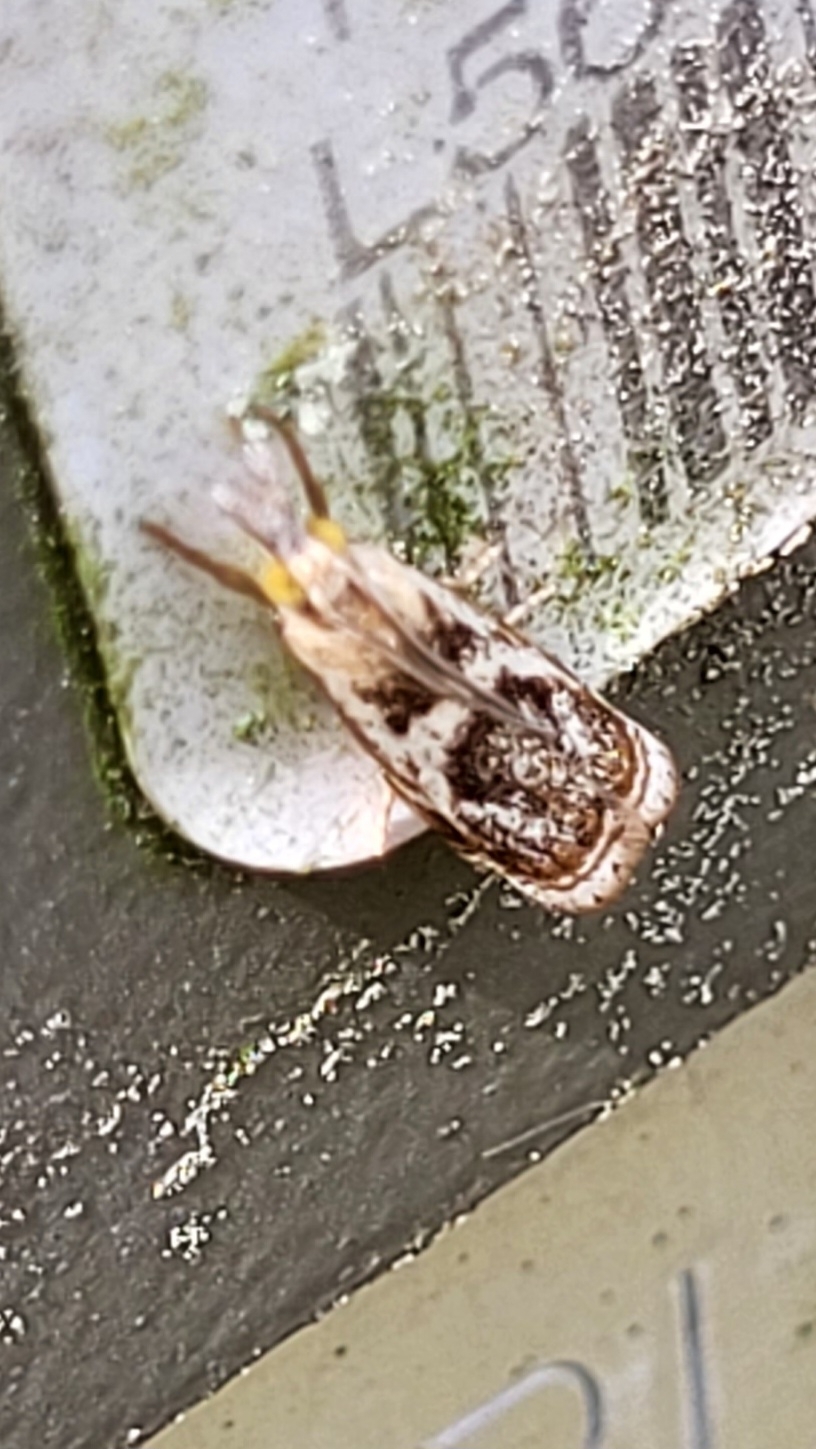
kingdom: Animalia
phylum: Arthropoda
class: Insecta
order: Lepidoptera
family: Crambidae
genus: Microcrambus
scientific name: Microcrambus elegans
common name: Elegant grass-veneer
